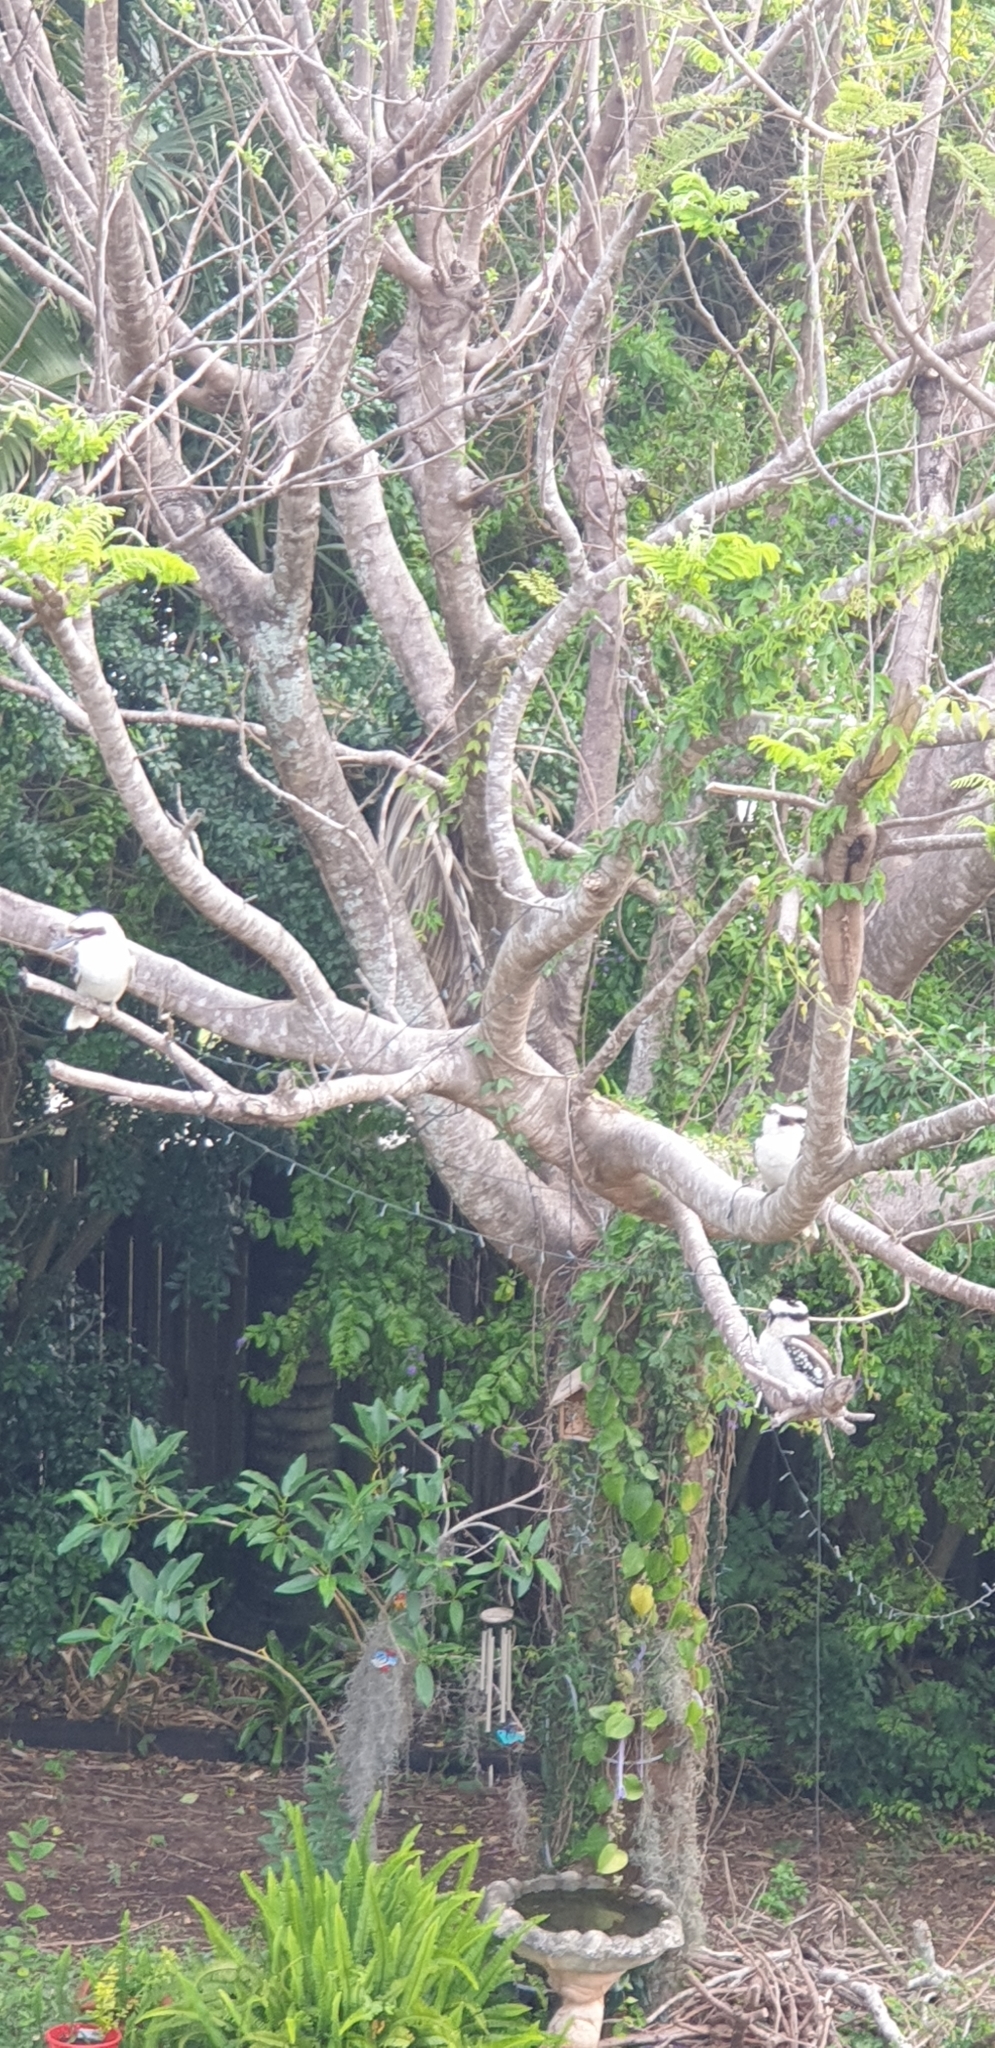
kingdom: Animalia
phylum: Chordata
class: Aves
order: Coraciiformes
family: Alcedinidae
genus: Dacelo
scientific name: Dacelo novaeguineae
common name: Laughing kookaburra
